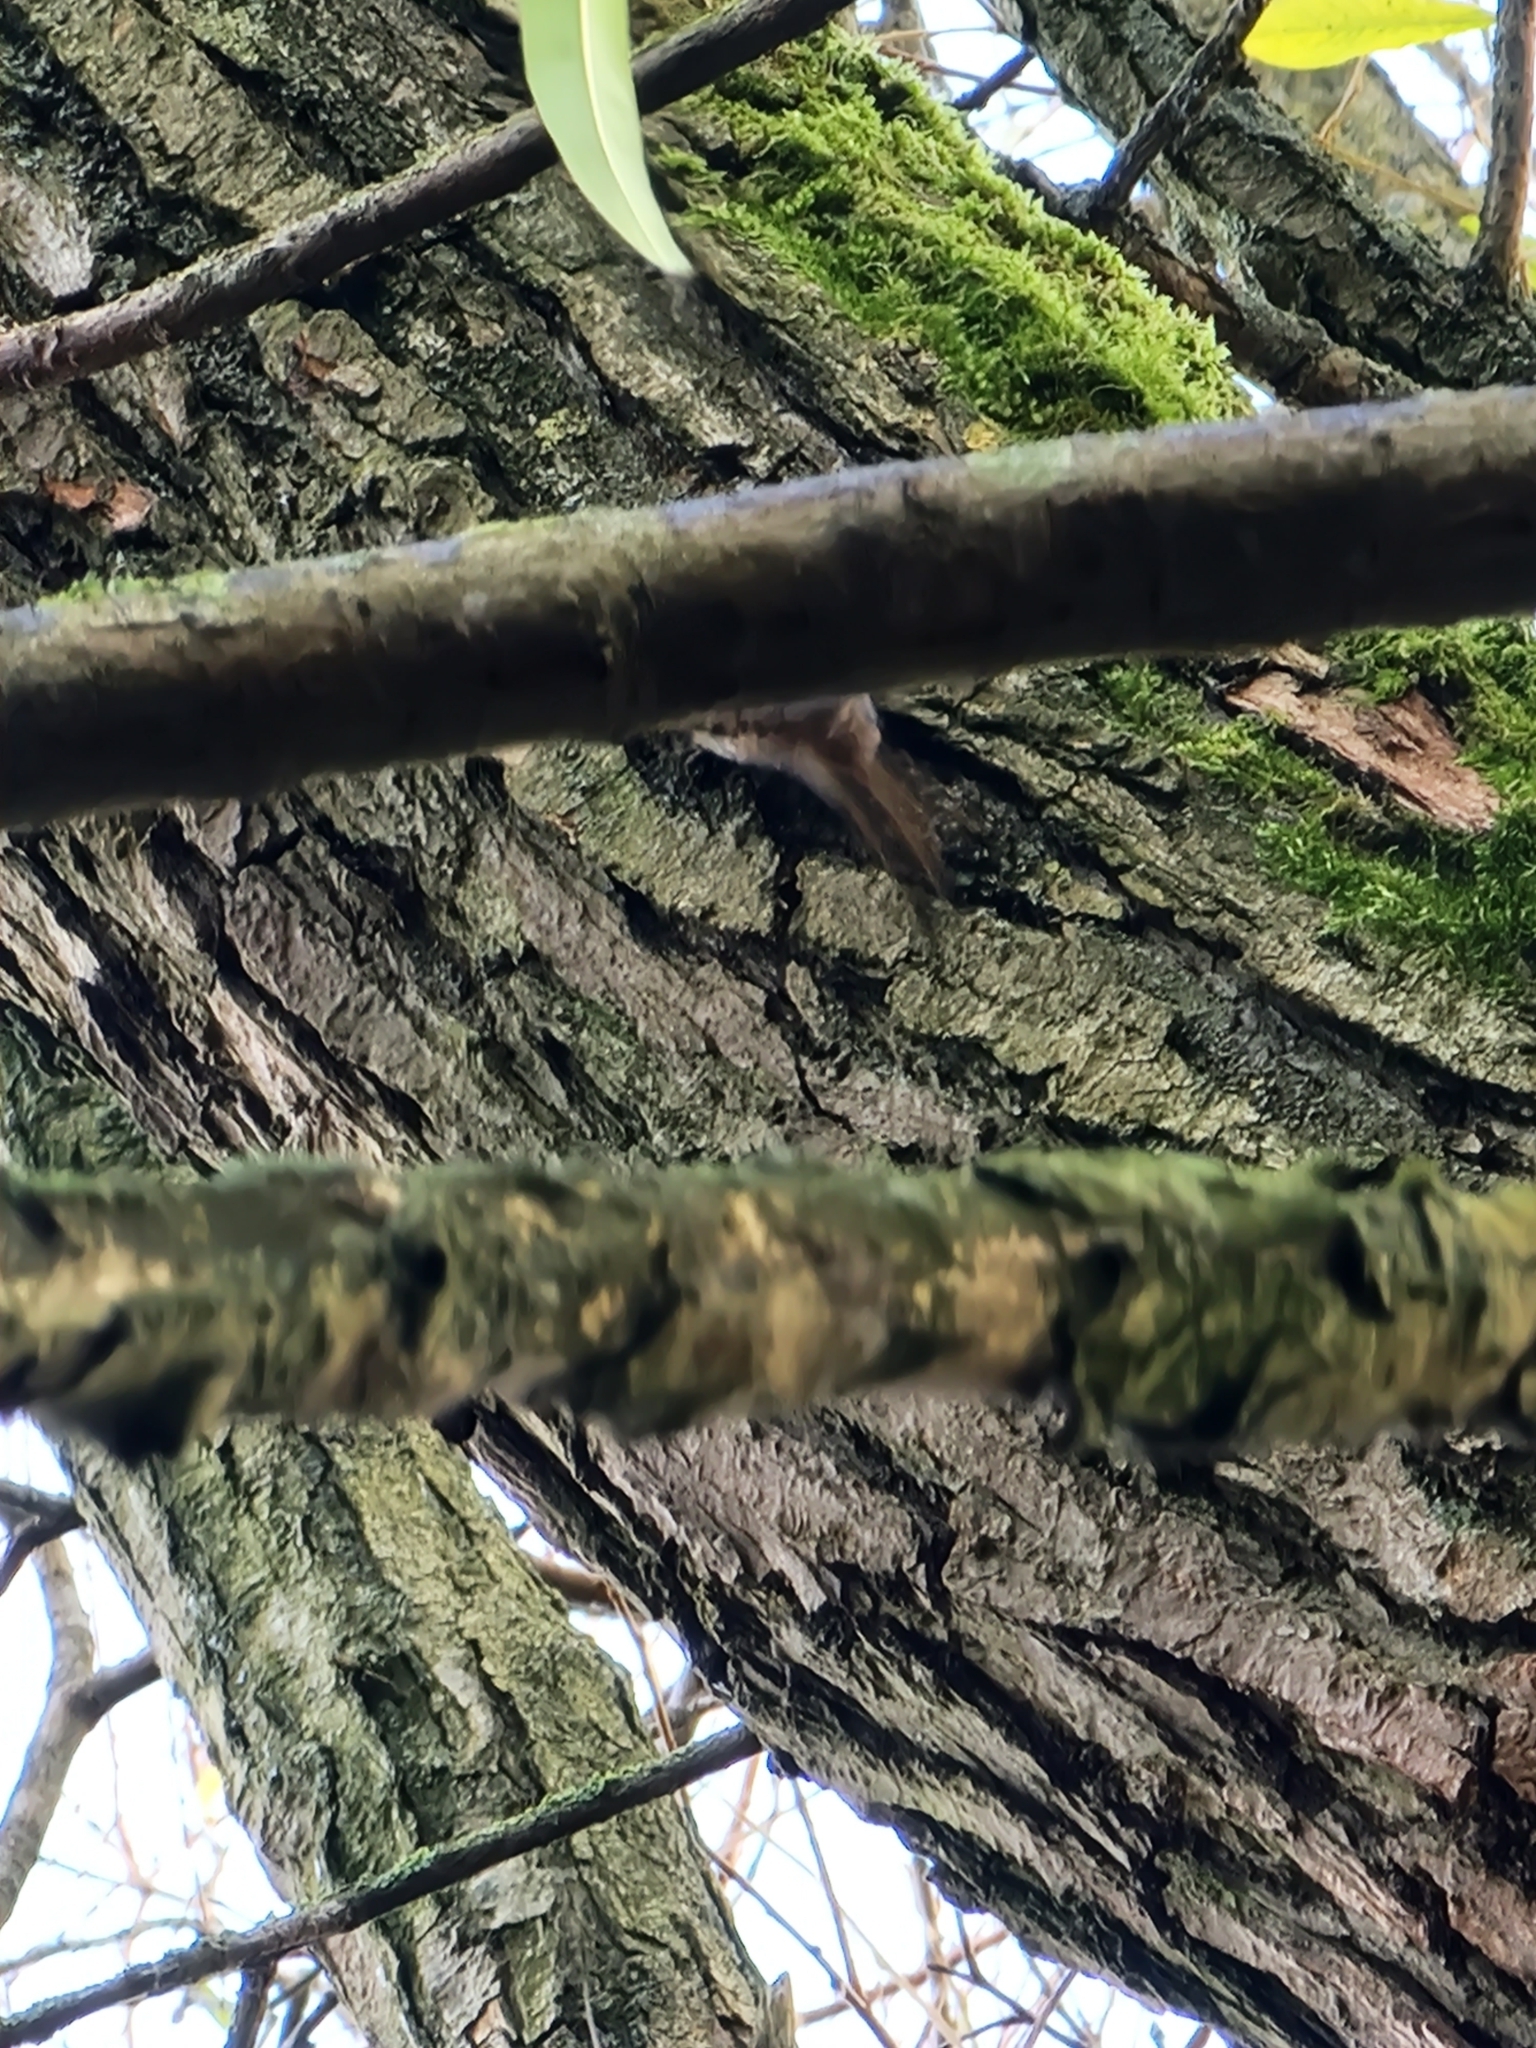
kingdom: Animalia
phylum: Chordata
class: Aves
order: Passeriformes
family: Certhiidae
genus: Certhia
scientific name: Certhia familiaris
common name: Eurasian treecreeper
